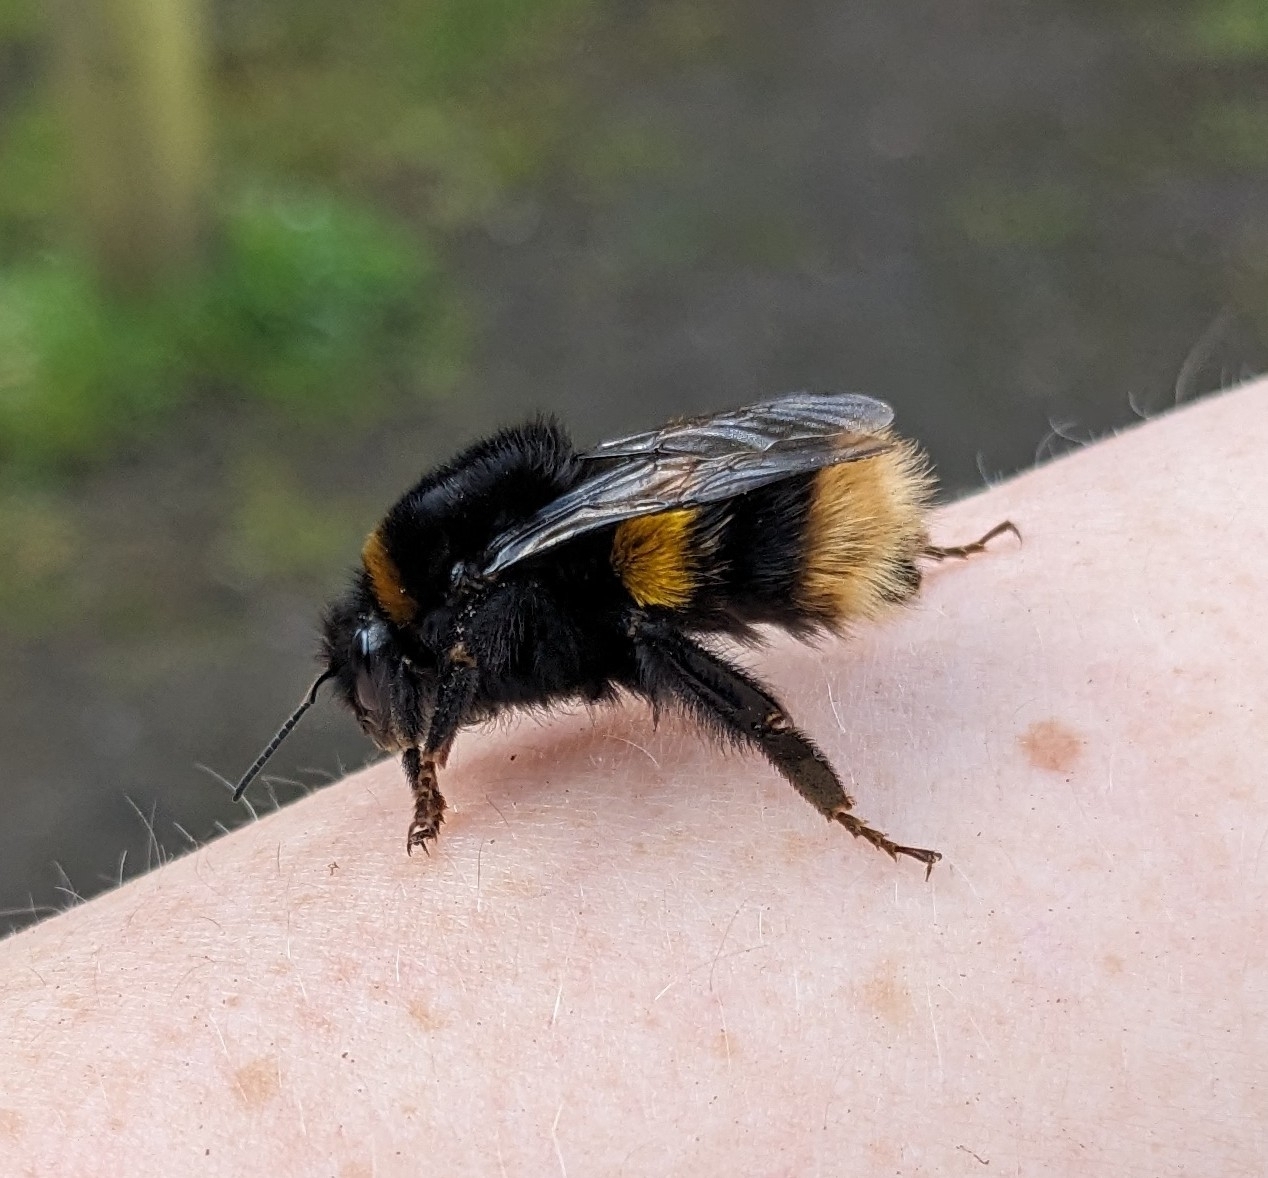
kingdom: Animalia
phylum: Arthropoda
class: Insecta
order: Hymenoptera
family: Apidae
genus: Bombus
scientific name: Bombus terrestris
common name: Buff-tailed bumblebee
